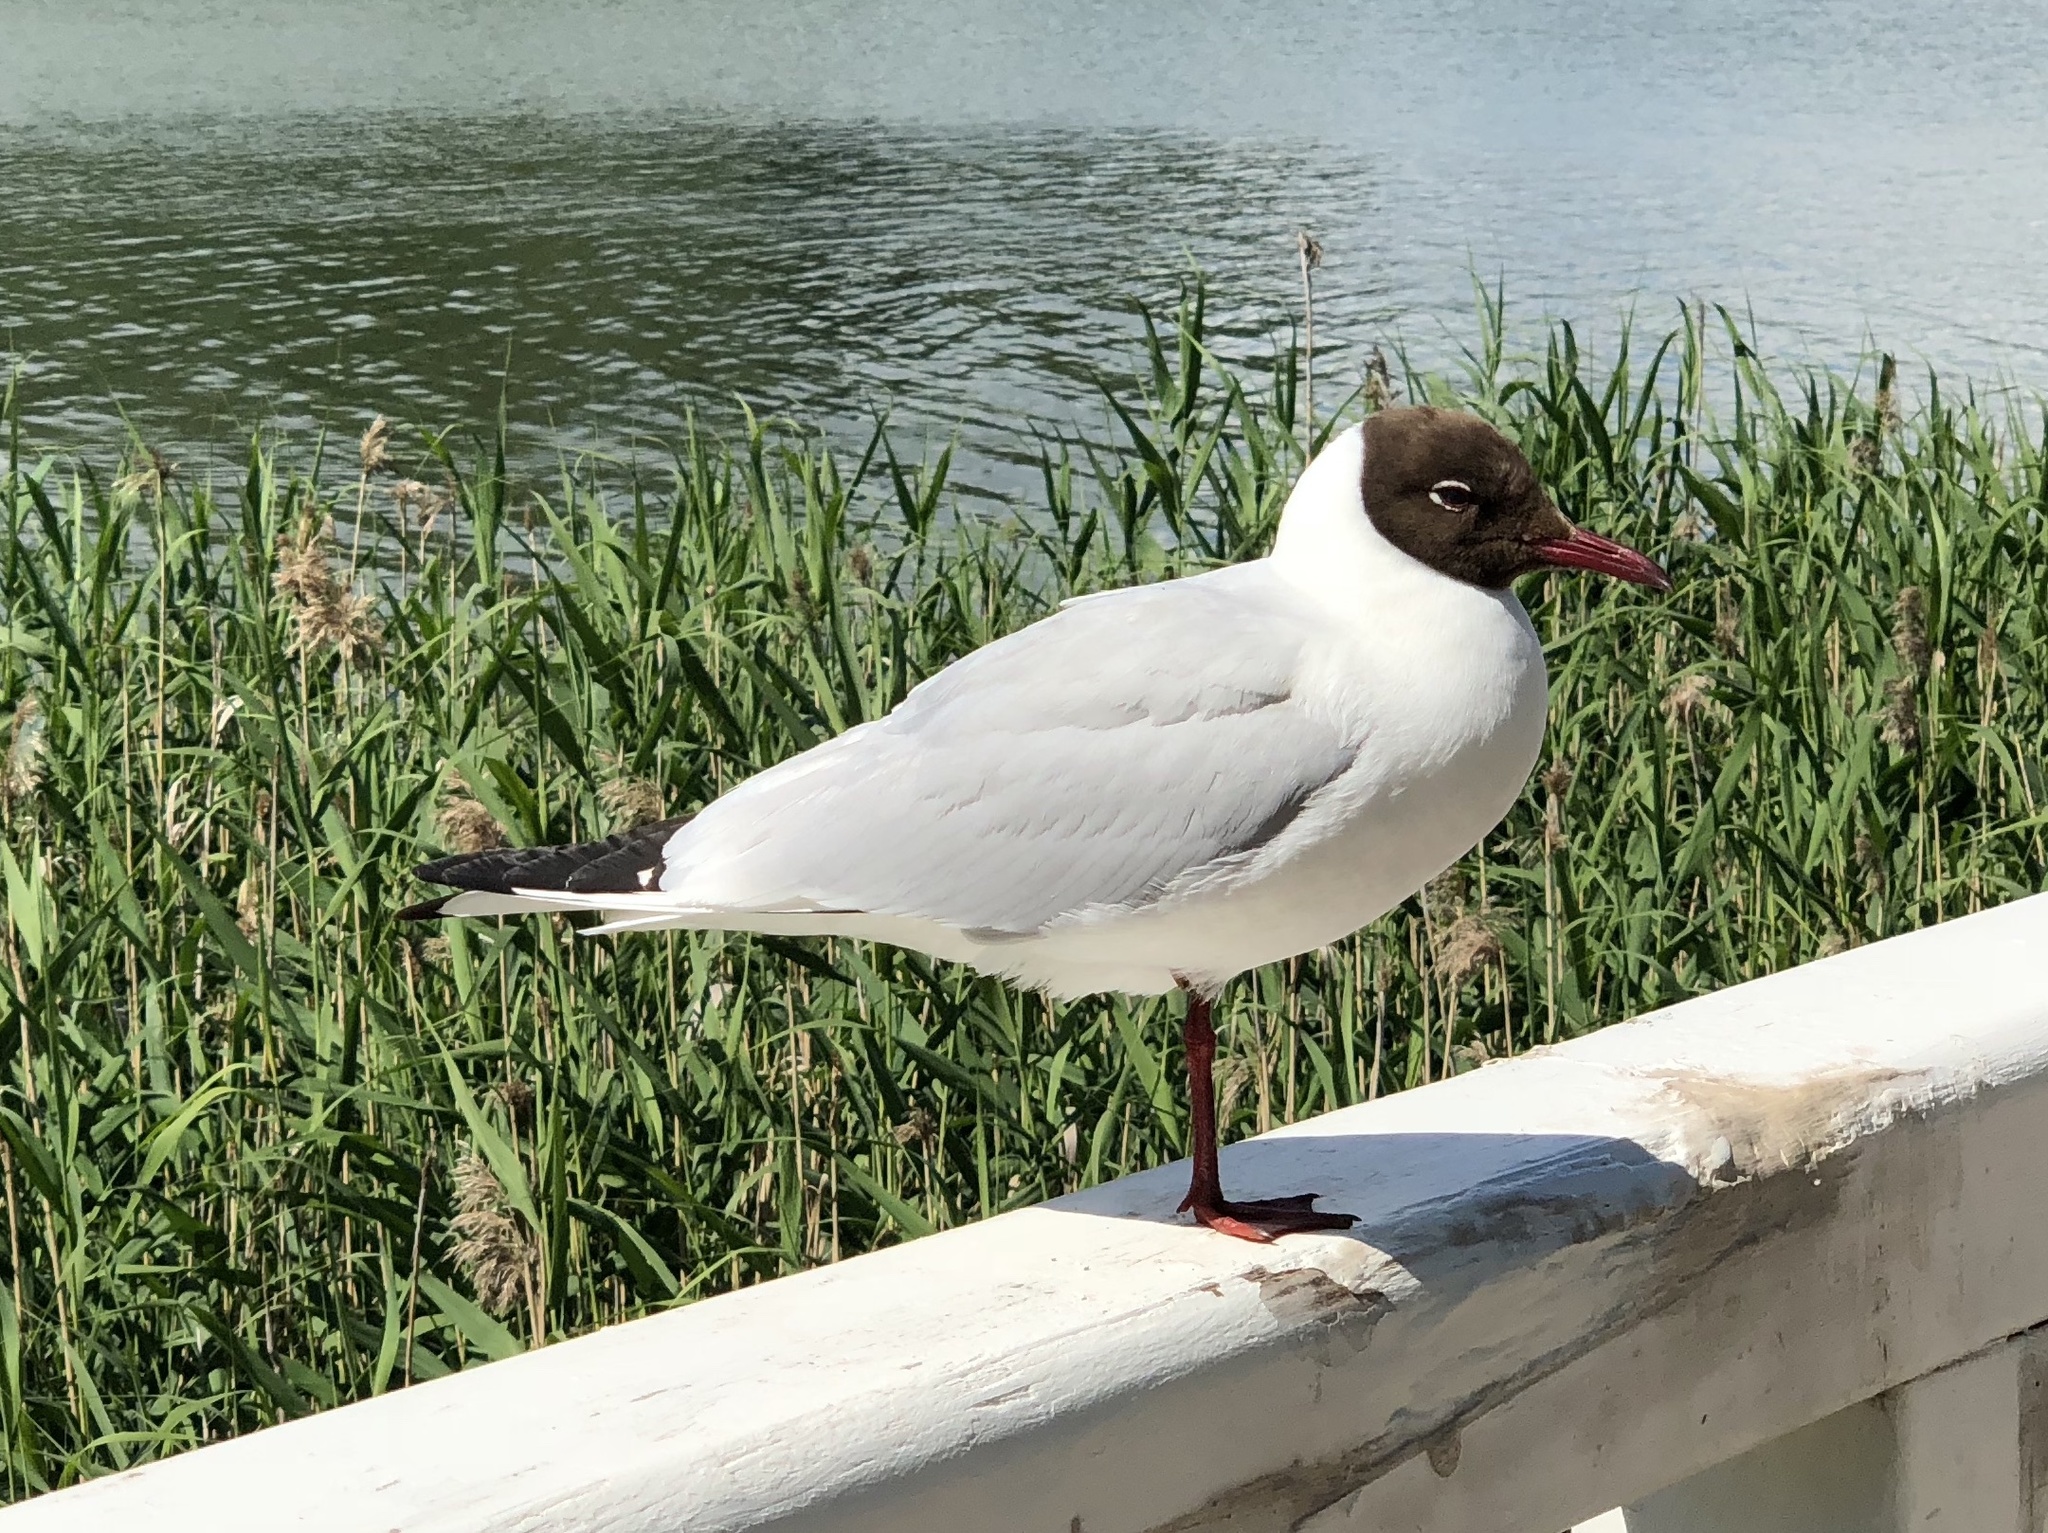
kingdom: Animalia
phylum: Chordata
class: Aves
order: Charadriiformes
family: Laridae
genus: Chroicocephalus
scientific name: Chroicocephalus ridibundus
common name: Black-headed gull
